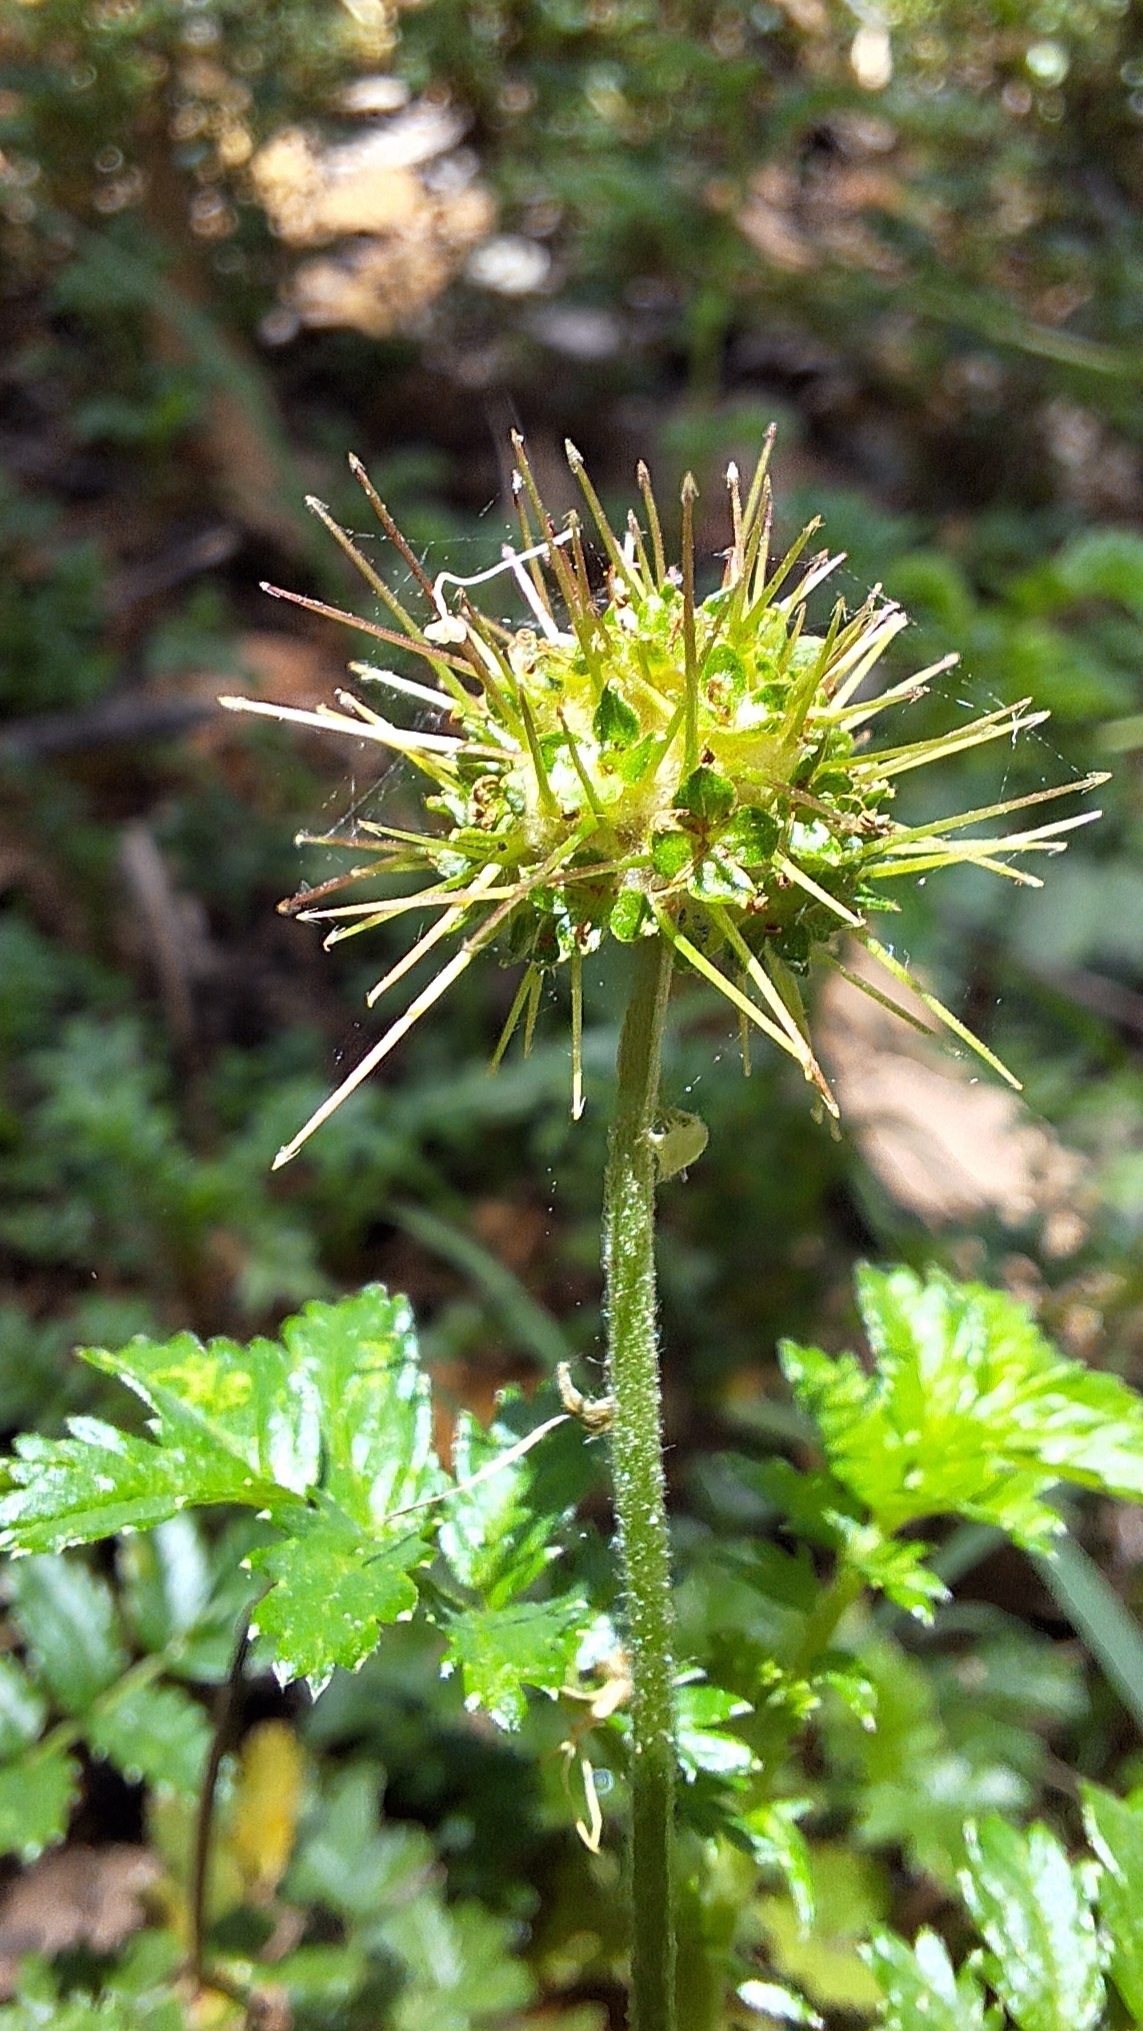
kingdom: Plantae
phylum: Tracheophyta
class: Magnoliopsida
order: Rosales
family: Rosaceae
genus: Acaena
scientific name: Acaena novae-zelandiae
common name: Pirri-pirri-bur
